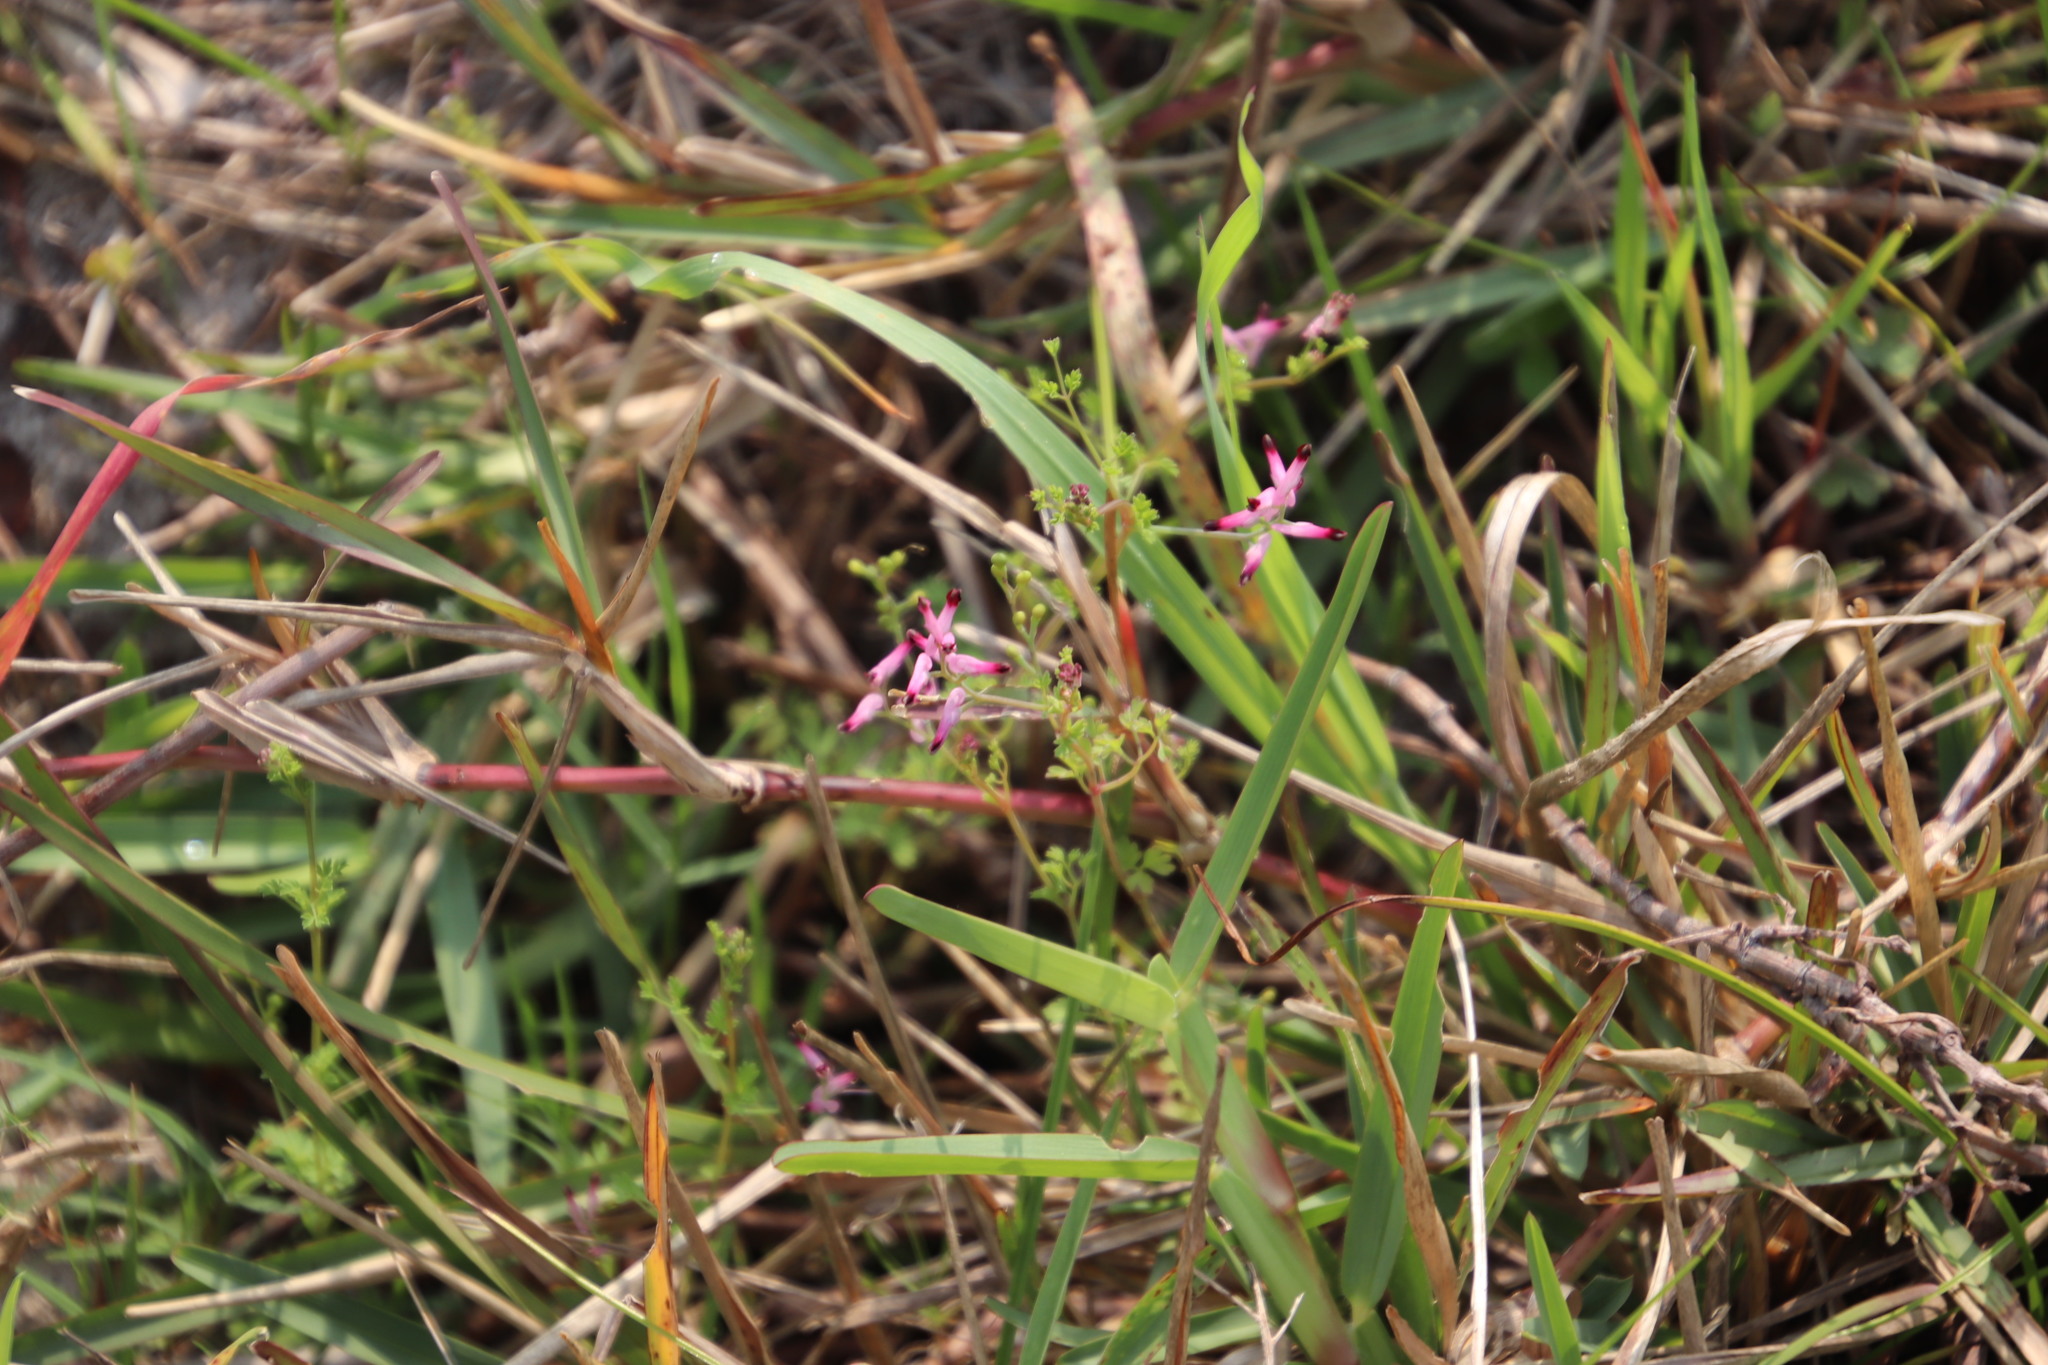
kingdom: Plantae
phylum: Tracheophyta
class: Magnoliopsida
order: Ranunculales
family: Papaveraceae
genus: Fumaria
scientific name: Fumaria muralis
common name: Common ramping-fumitory
